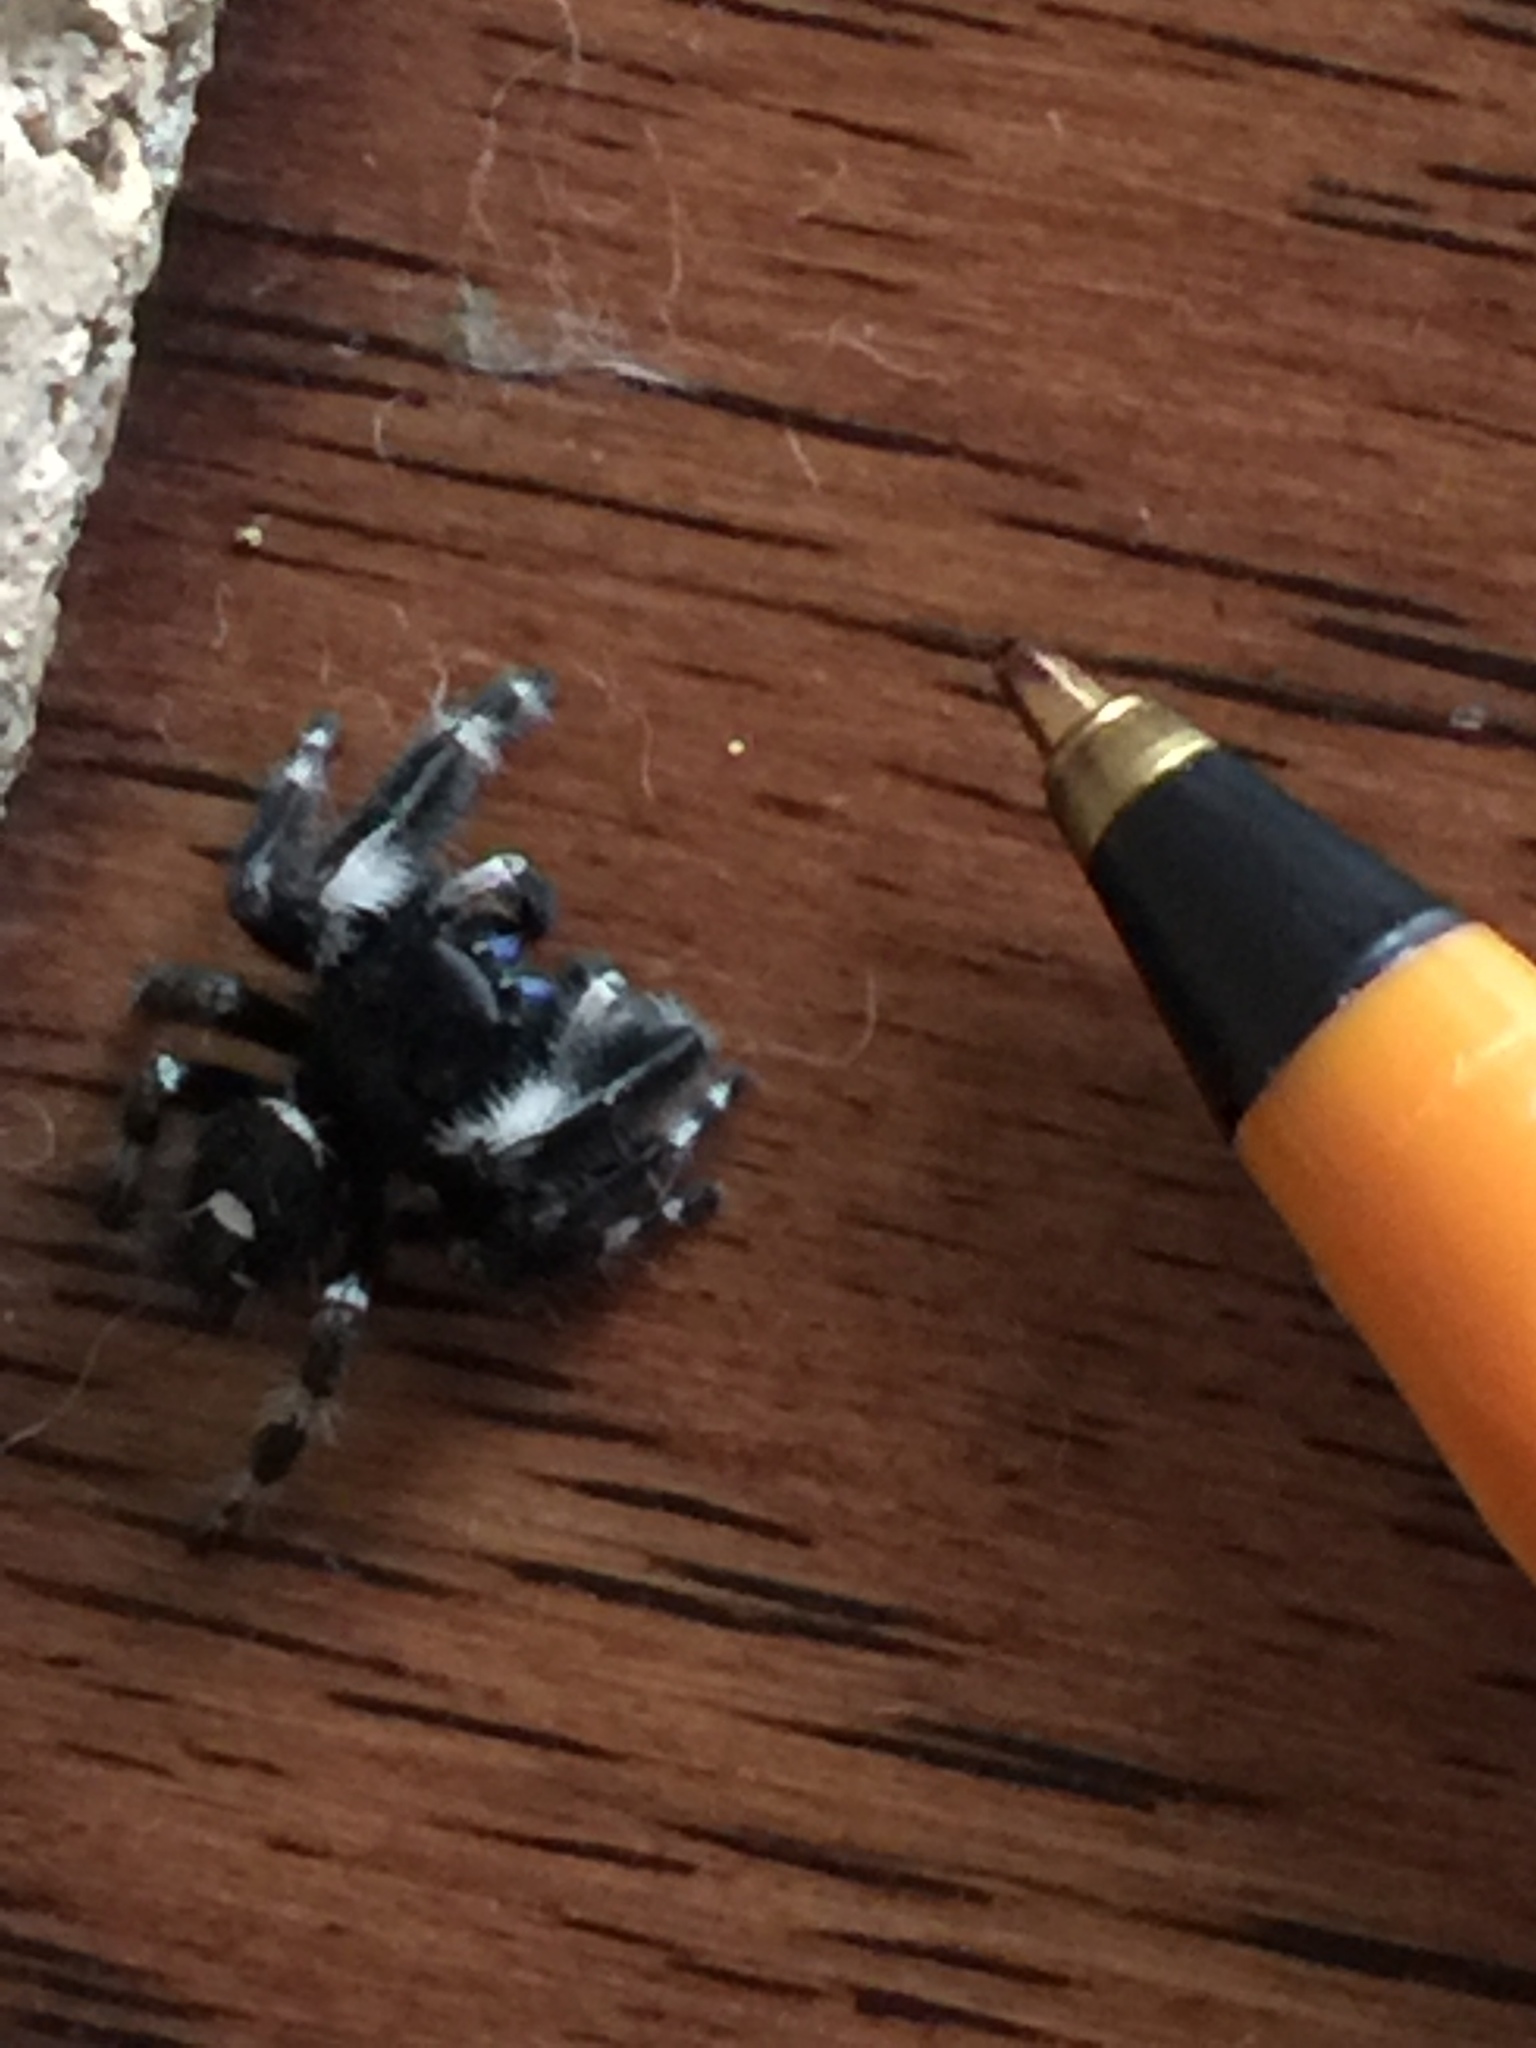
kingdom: Animalia
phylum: Arthropoda
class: Arachnida
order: Araneae
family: Salticidae
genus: Phidippus
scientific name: Phidippus audax
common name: Bold jumper
